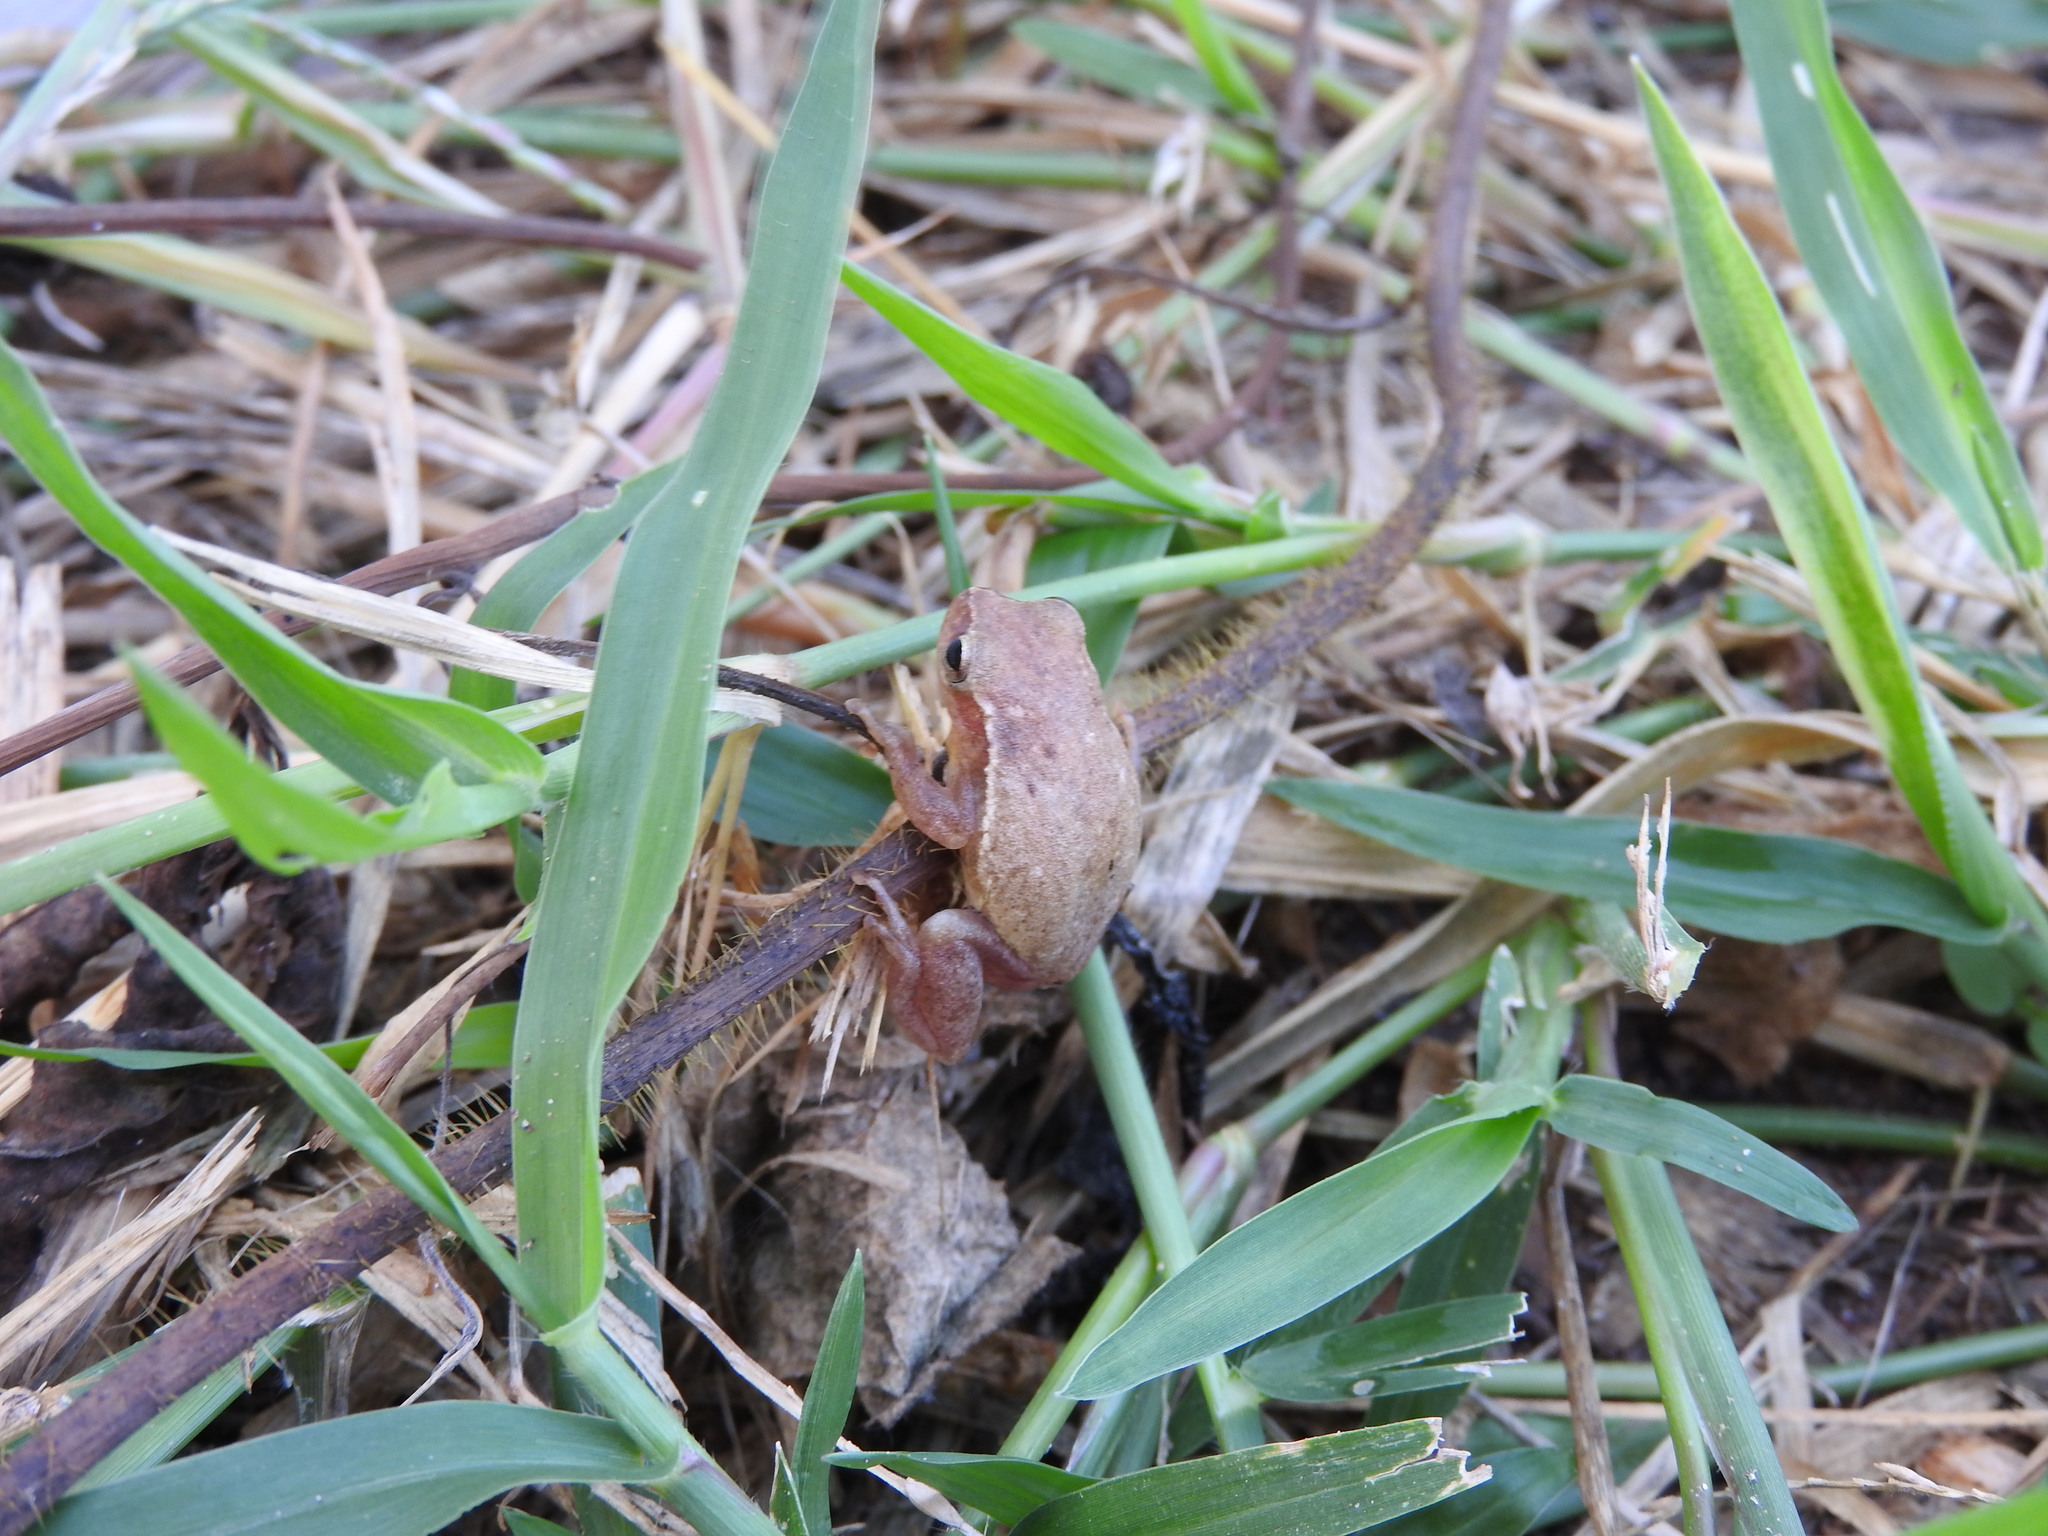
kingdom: Animalia
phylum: Chordata
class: Amphibia
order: Anura
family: Hylidae
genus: Tlalocohyla
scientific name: Tlalocohyla smithii
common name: Dwarf mexican treefrog
